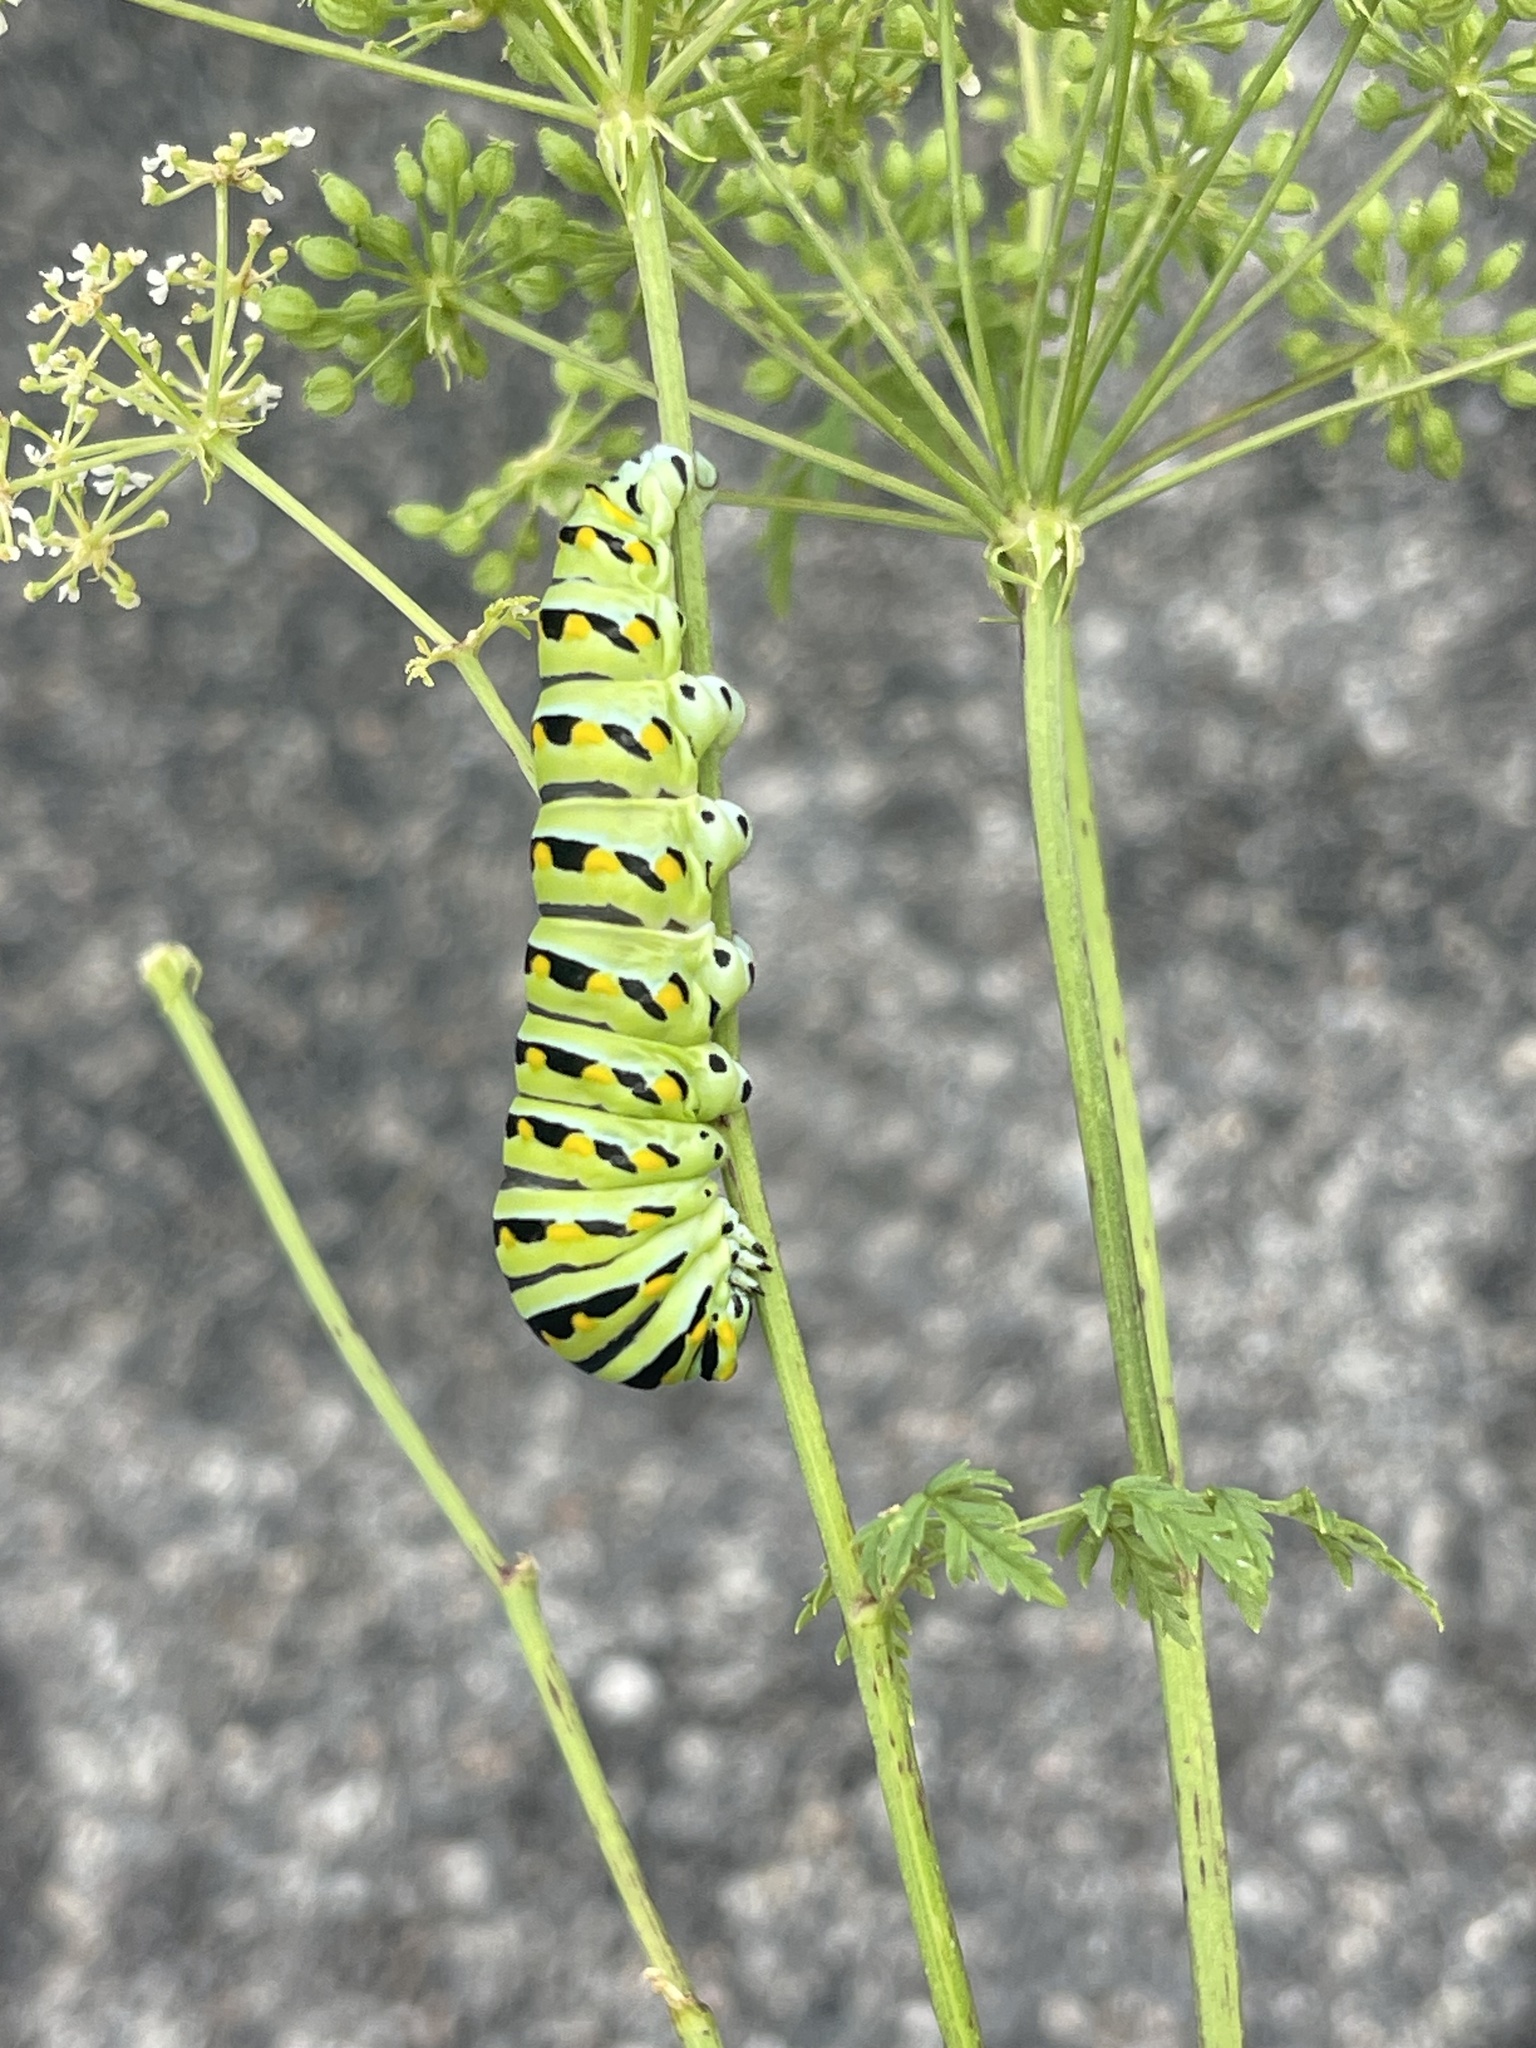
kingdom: Animalia
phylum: Arthropoda
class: Insecta
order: Lepidoptera
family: Papilionidae
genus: Papilio
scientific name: Papilio polyxenes
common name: Black swallowtail
